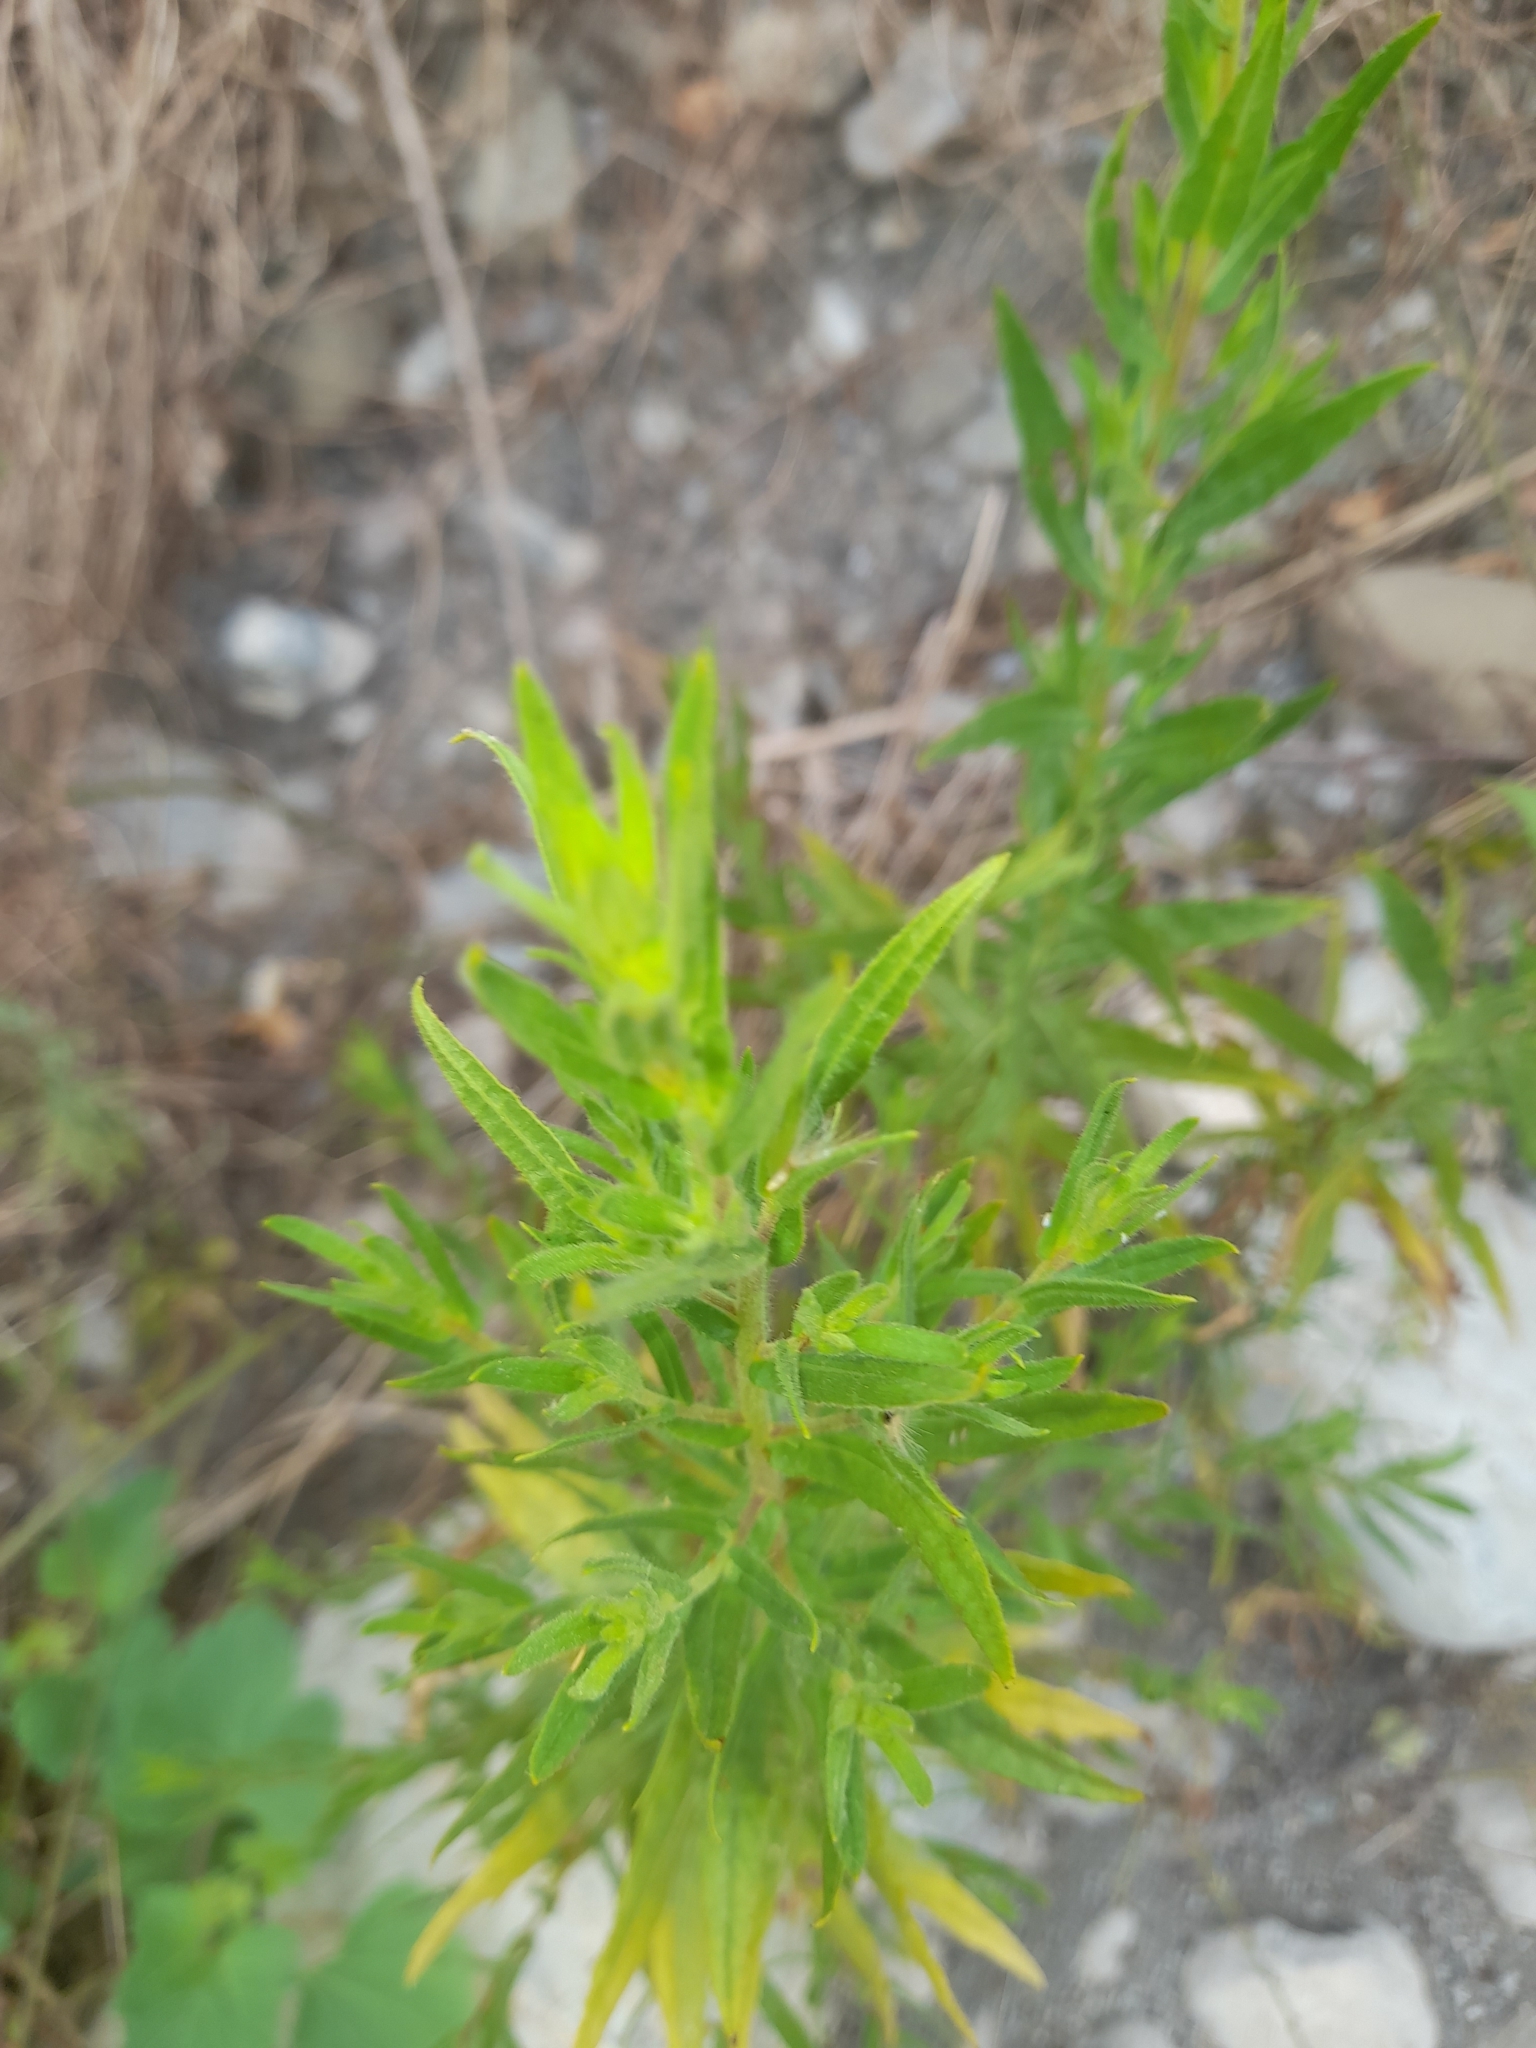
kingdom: Plantae
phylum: Tracheophyta
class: Magnoliopsida
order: Asterales
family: Asteraceae
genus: Dittrichia
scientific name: Dittrichia viscosa
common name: Woody fleabane
